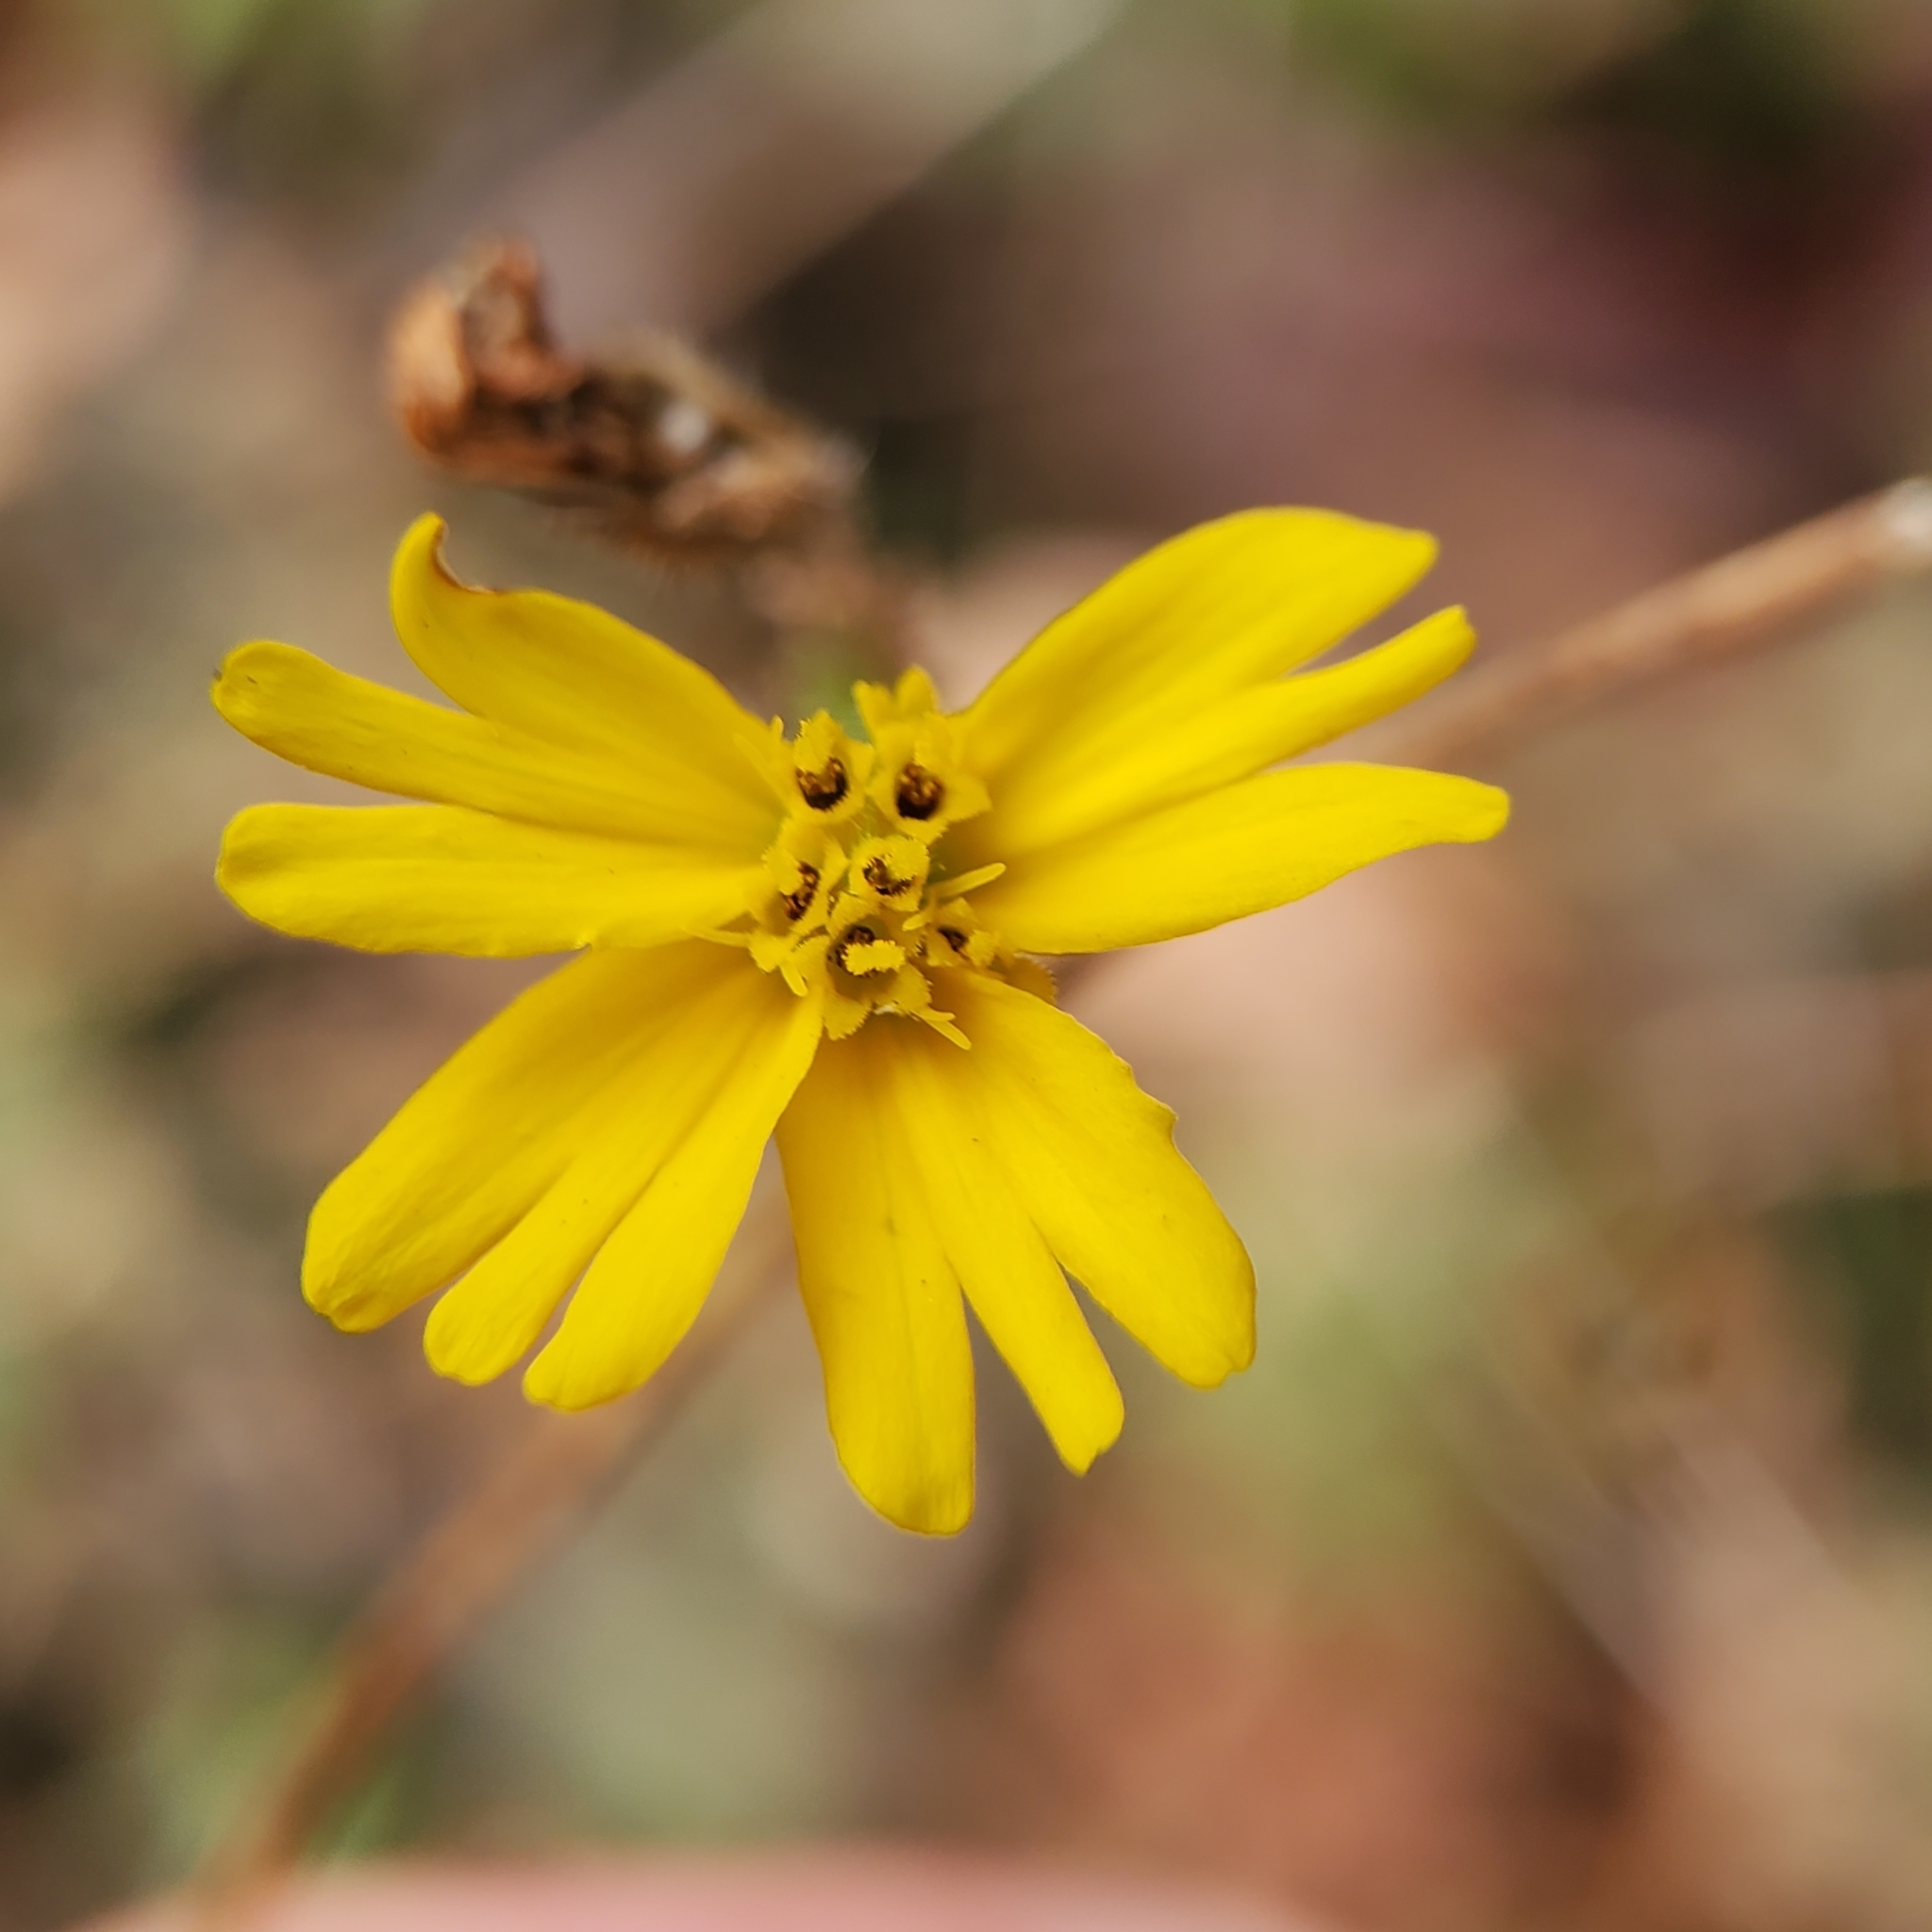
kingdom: Plantae
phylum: Tracheophyta
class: Magnoliopsida
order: Asterales
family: Asteraceae
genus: Madia
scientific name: Madia elegans
